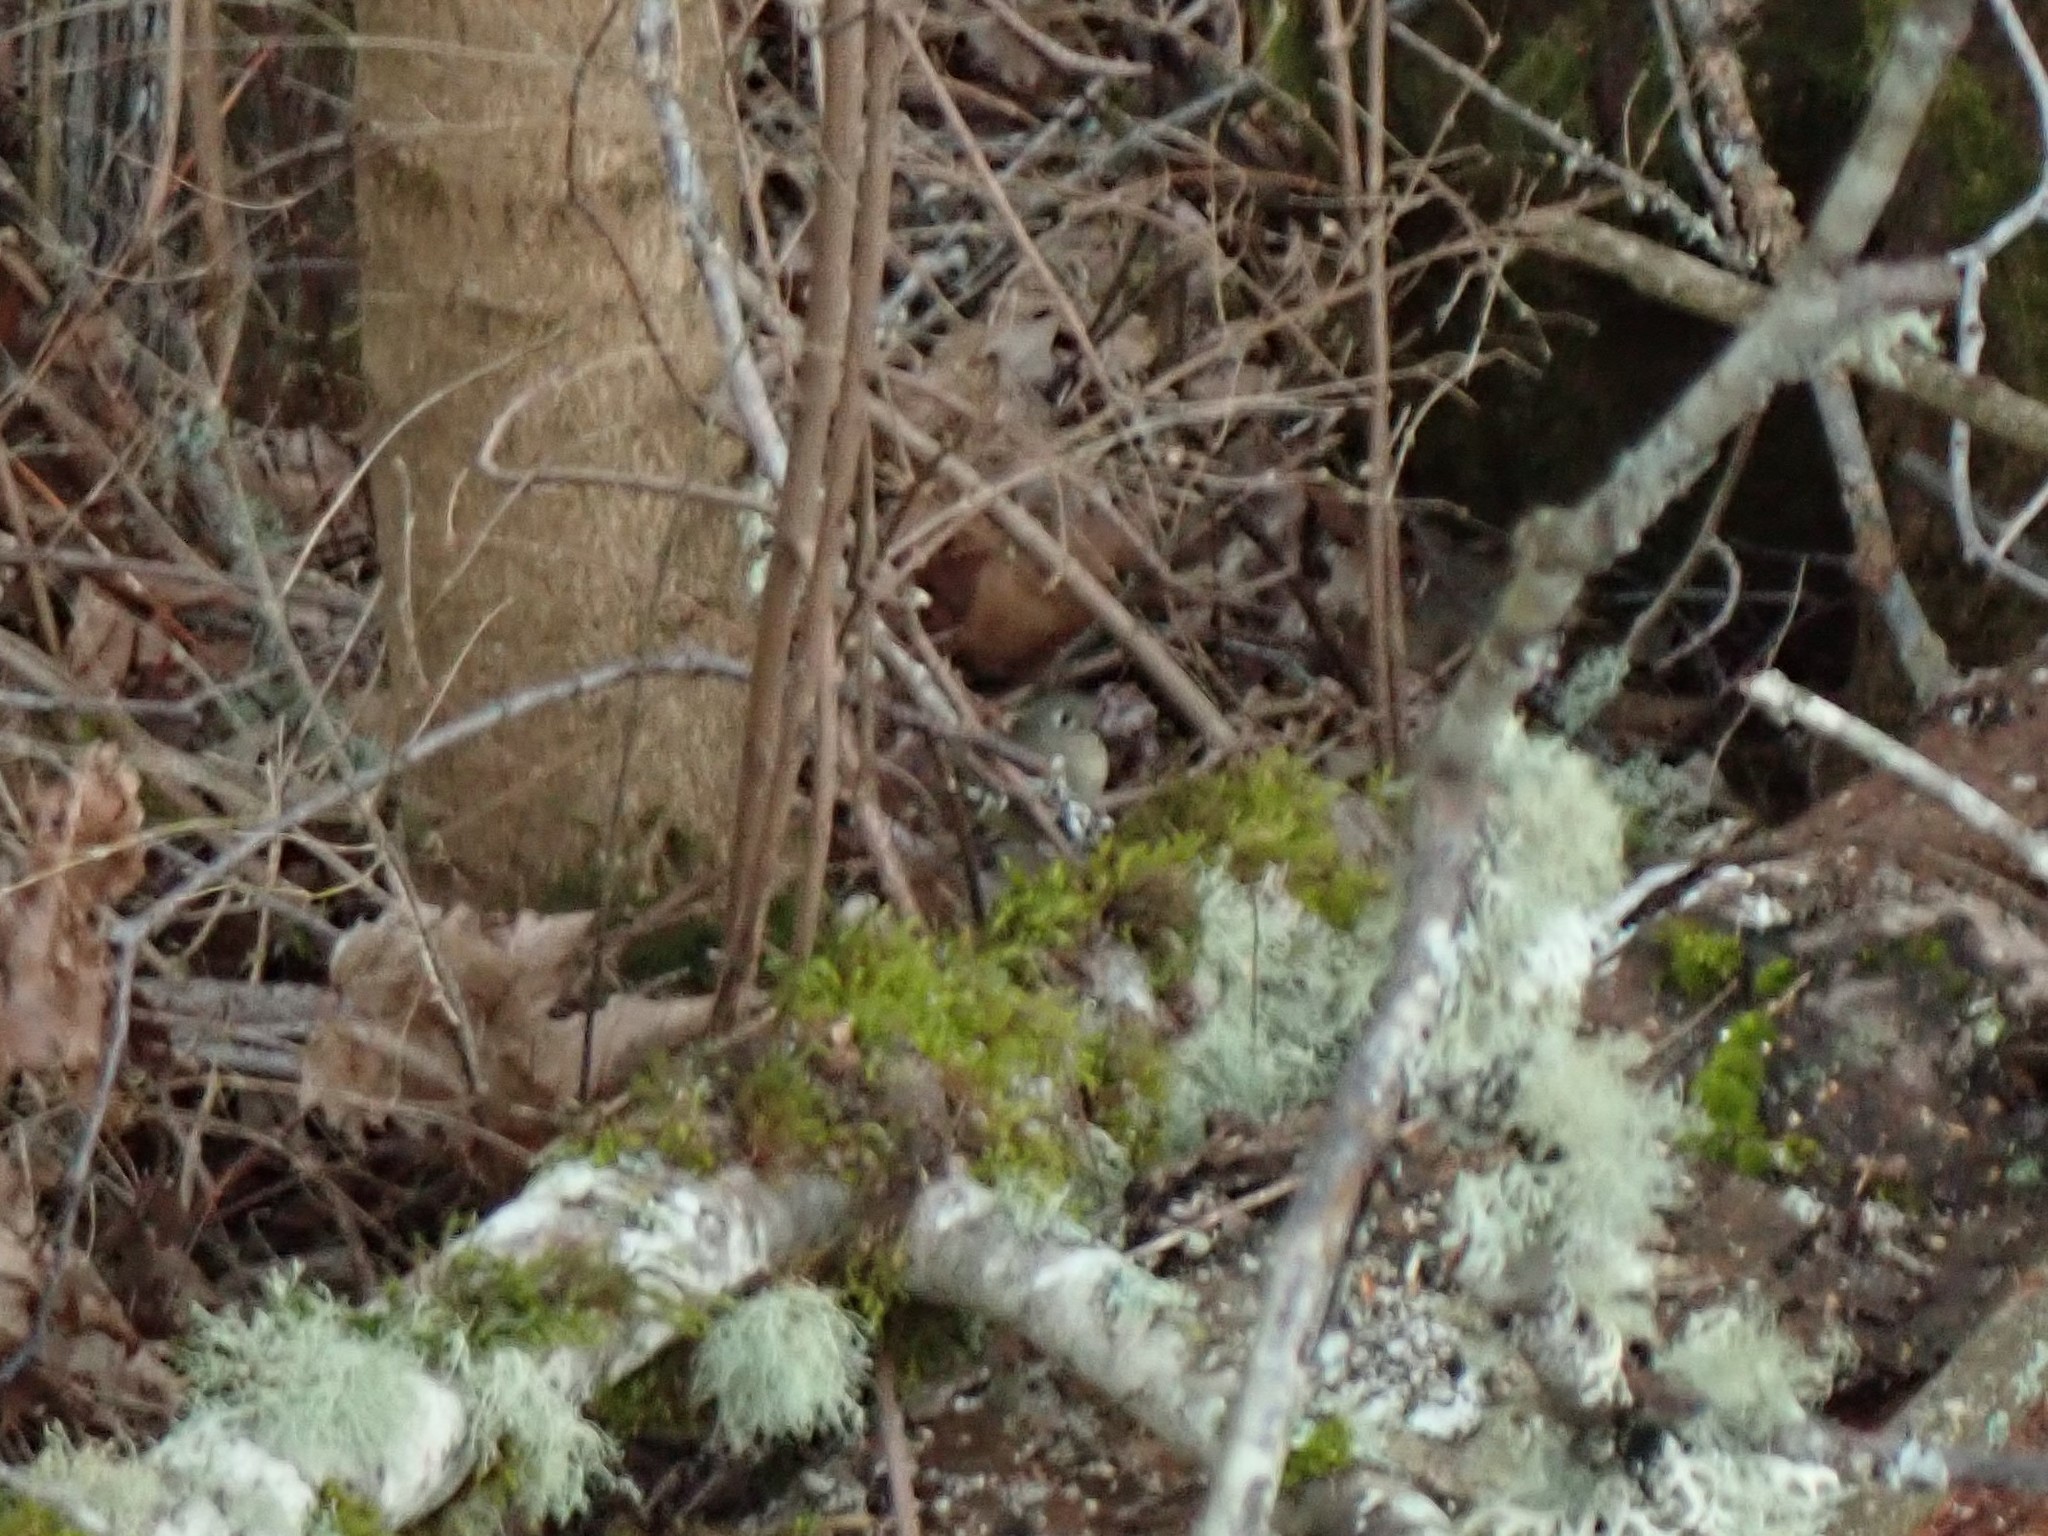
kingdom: Animalia
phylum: Chordata
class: Aves
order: Passeriformes
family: Regulidae
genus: Regulus
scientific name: Regulus calendula
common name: Ruby-crowned kinglet
